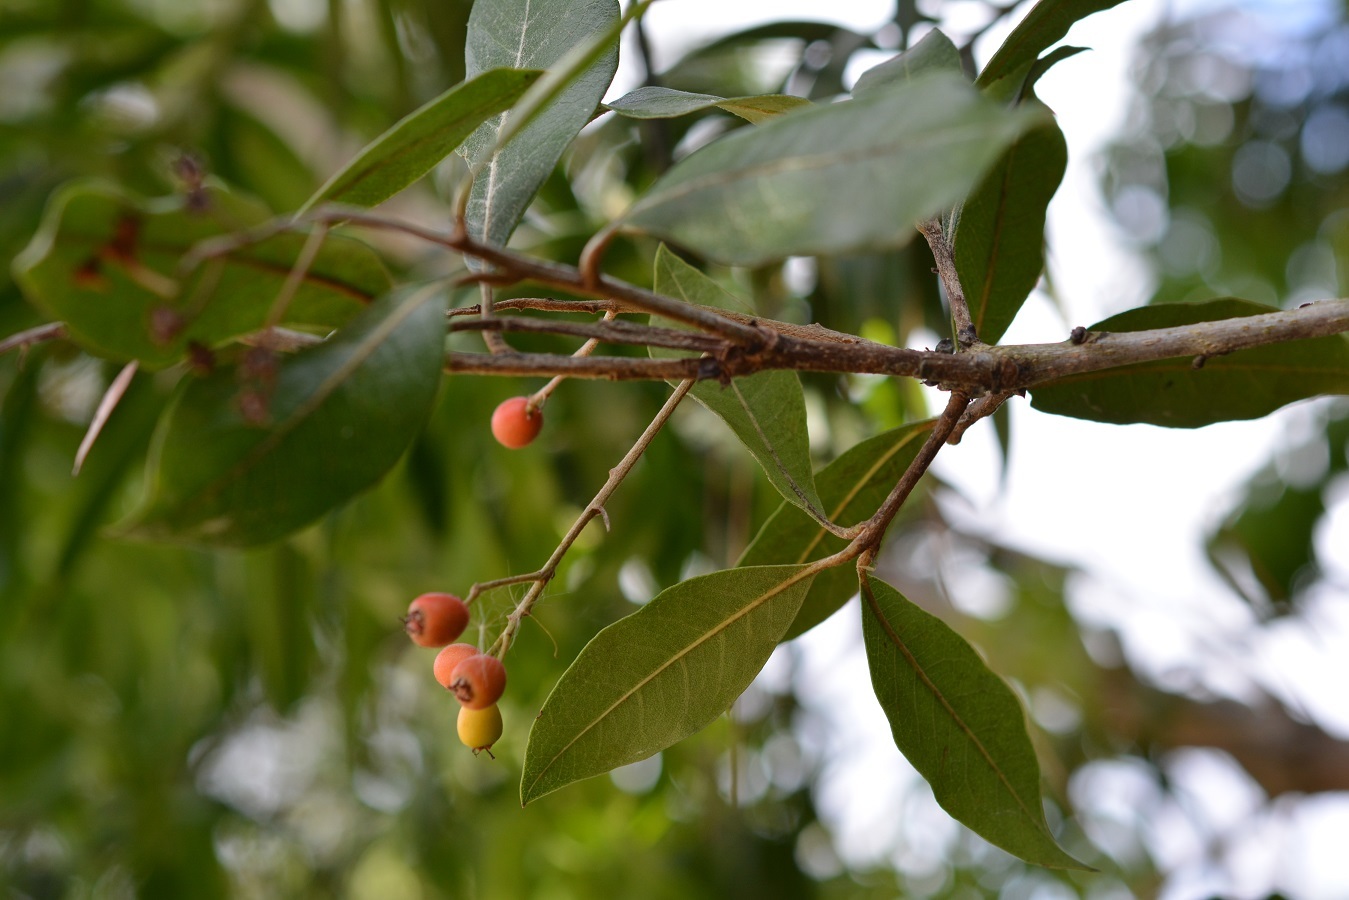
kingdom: Plantae
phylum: Tracheophyta
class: Magnoliopsida
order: Rosales
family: Rosaceae
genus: Phippsiomeles
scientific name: Phippsiomeles matudae
